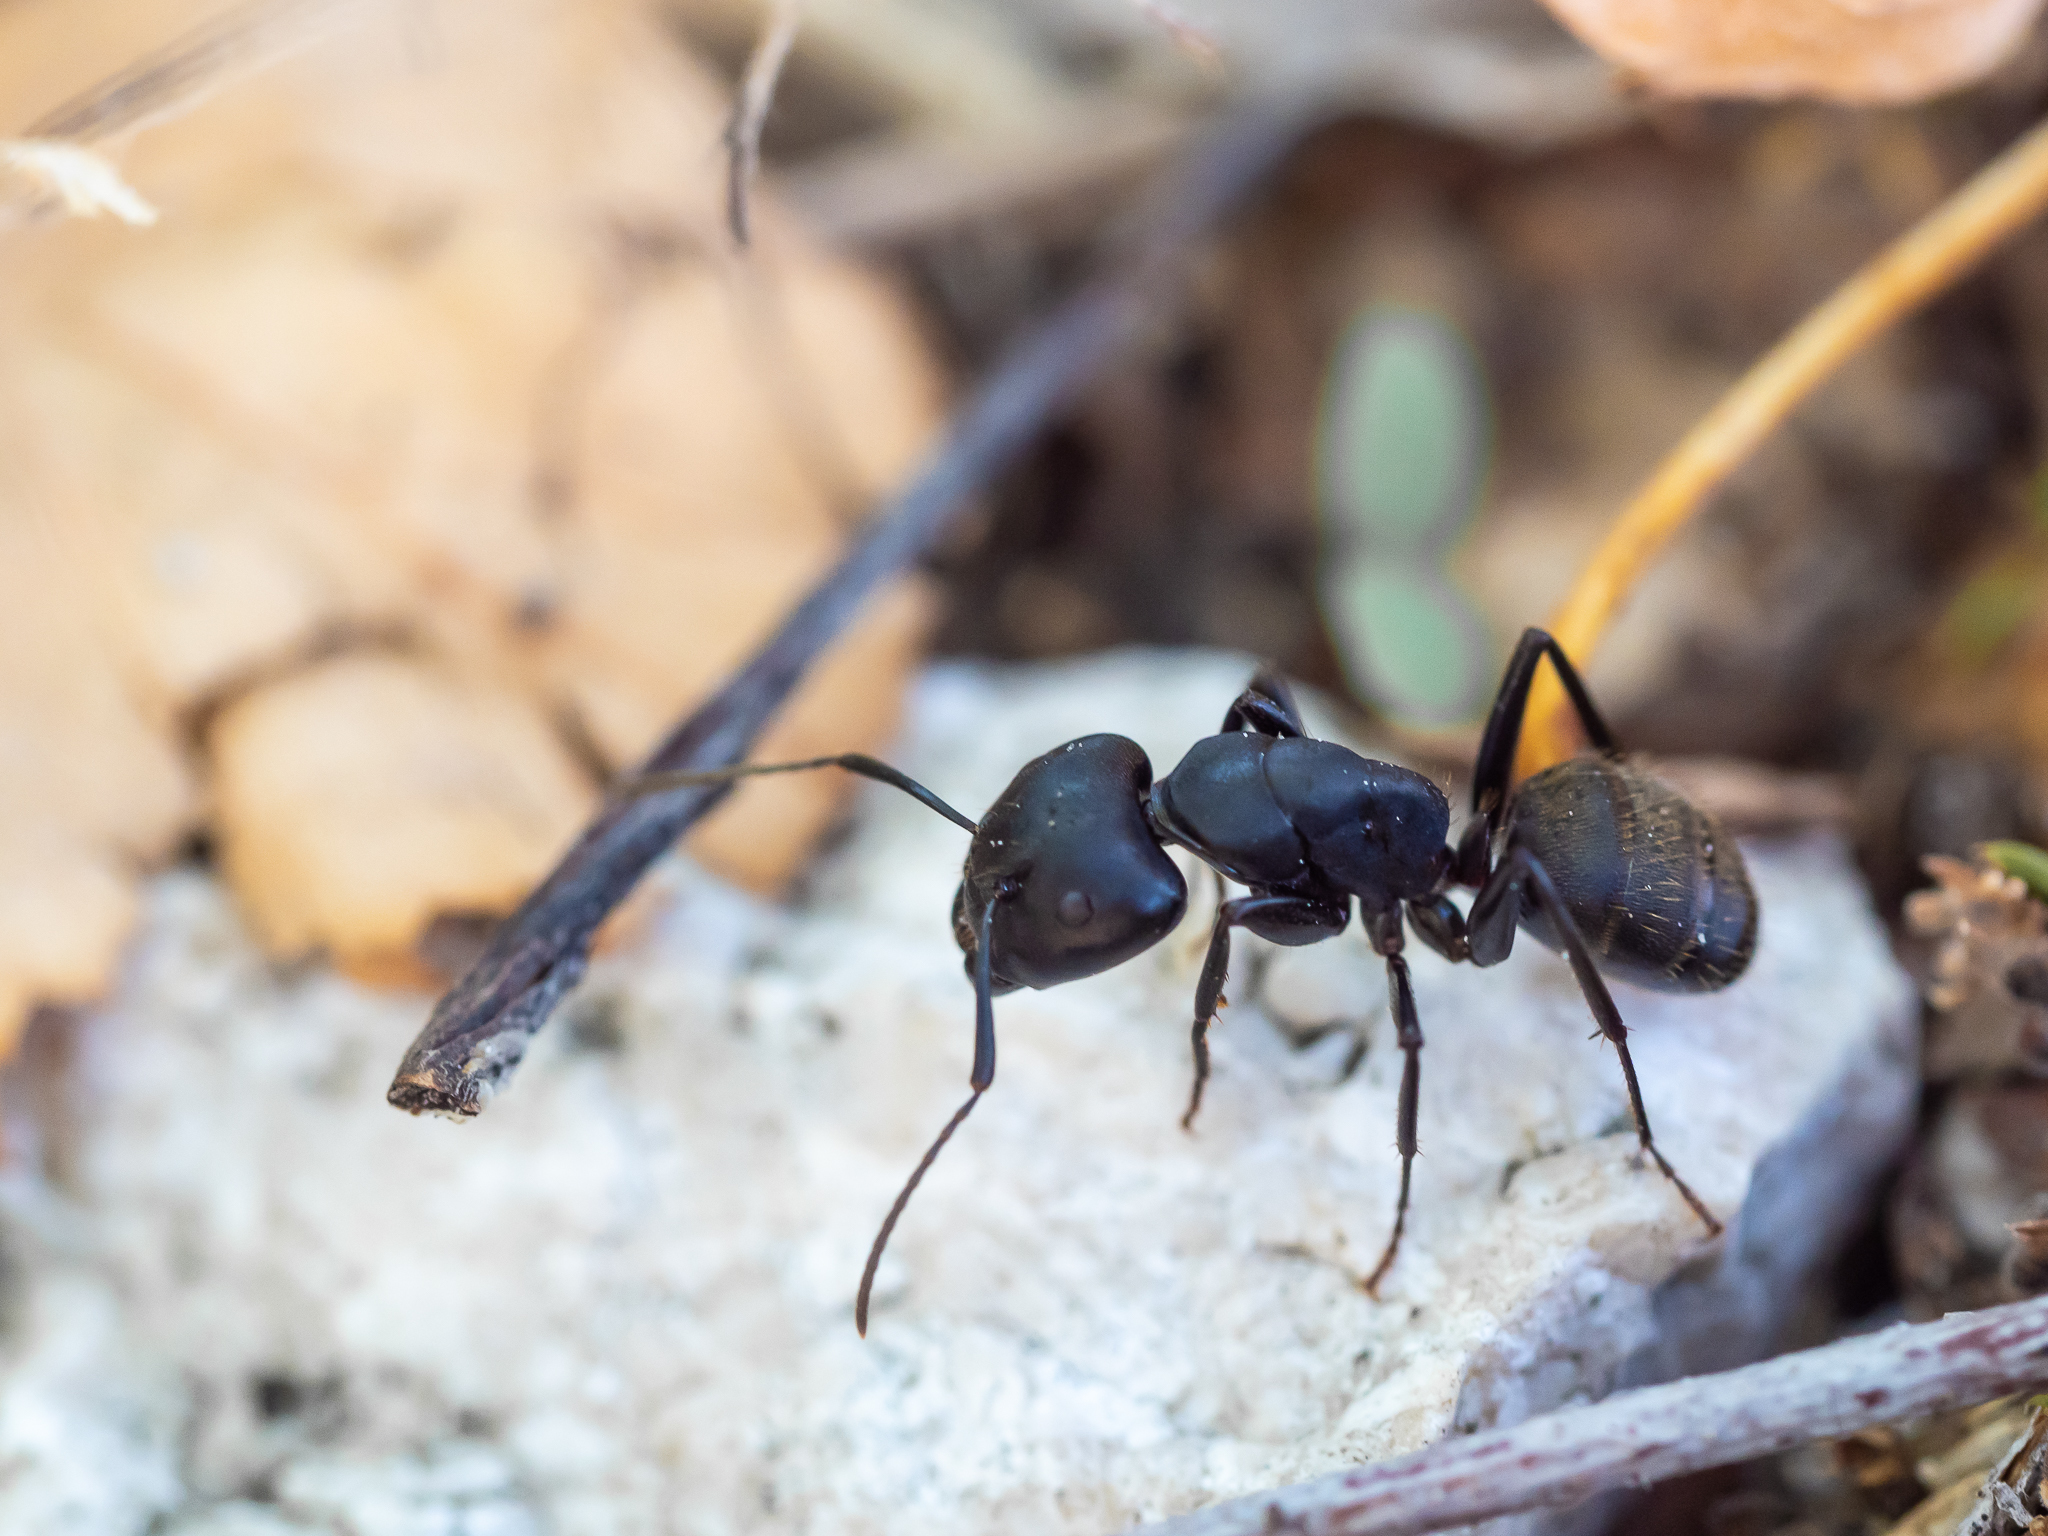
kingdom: Animalia
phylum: Arthropoda
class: Insecta
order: Hymenoptera
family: Formicidae
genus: Camponotus
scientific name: Camponotus vagus
